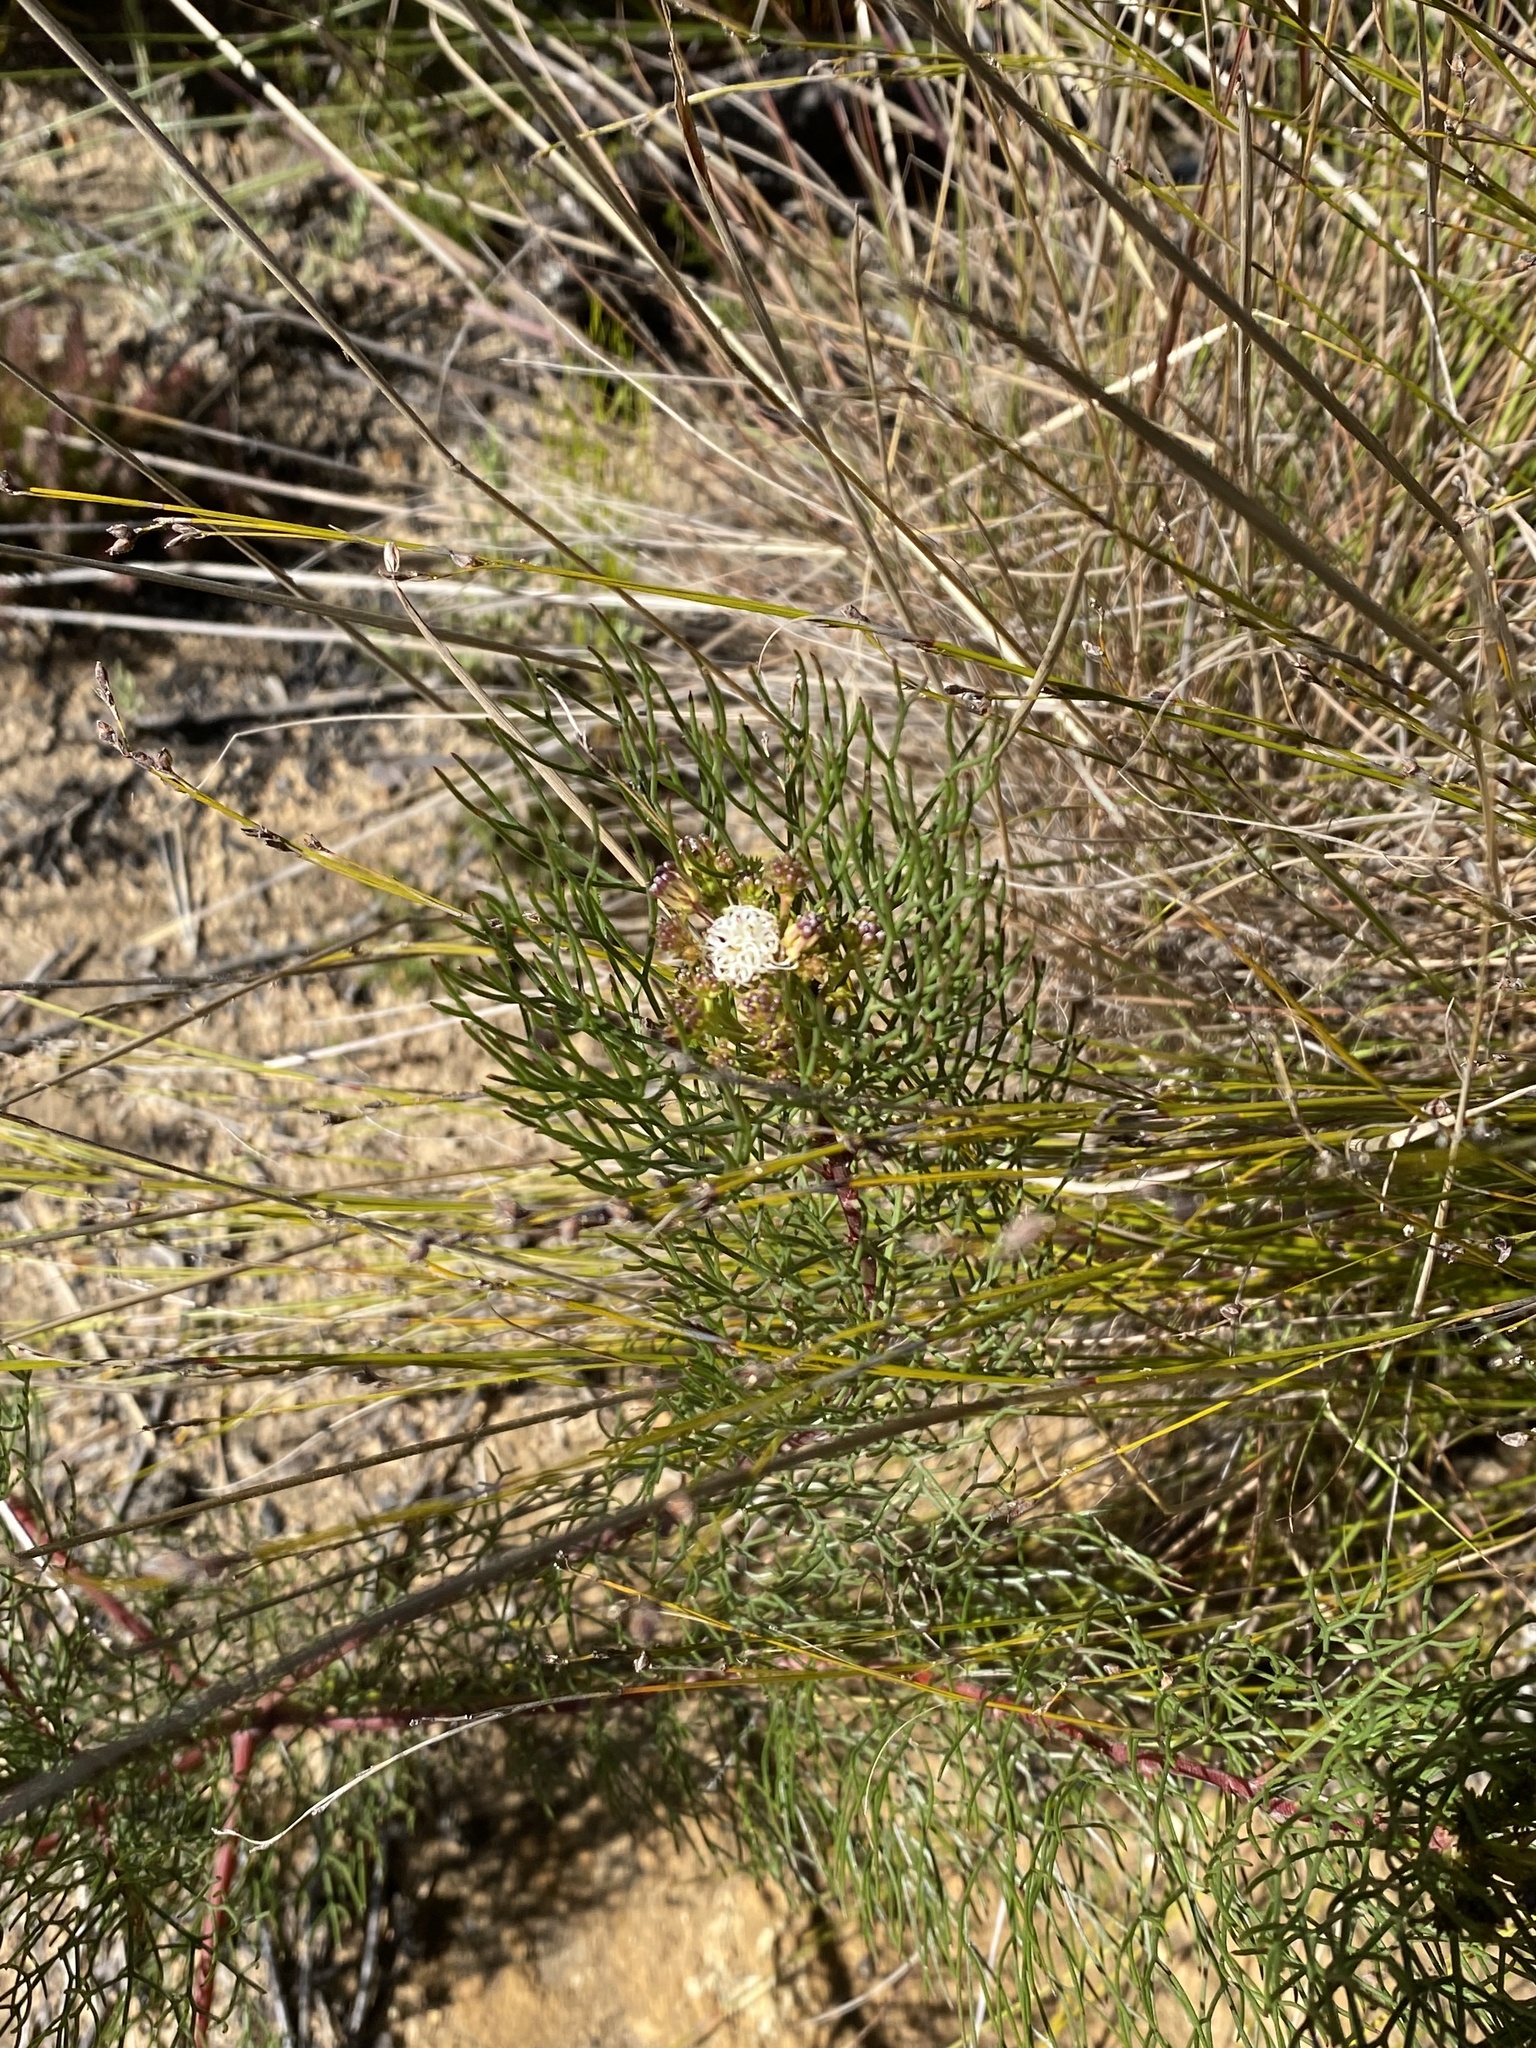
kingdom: Plantae
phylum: Tracheophyta
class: Magnoliopsida
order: Proteales
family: Proteaceae
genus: Serruria
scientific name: Serruria fasciflora
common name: Common pin spiderhead
